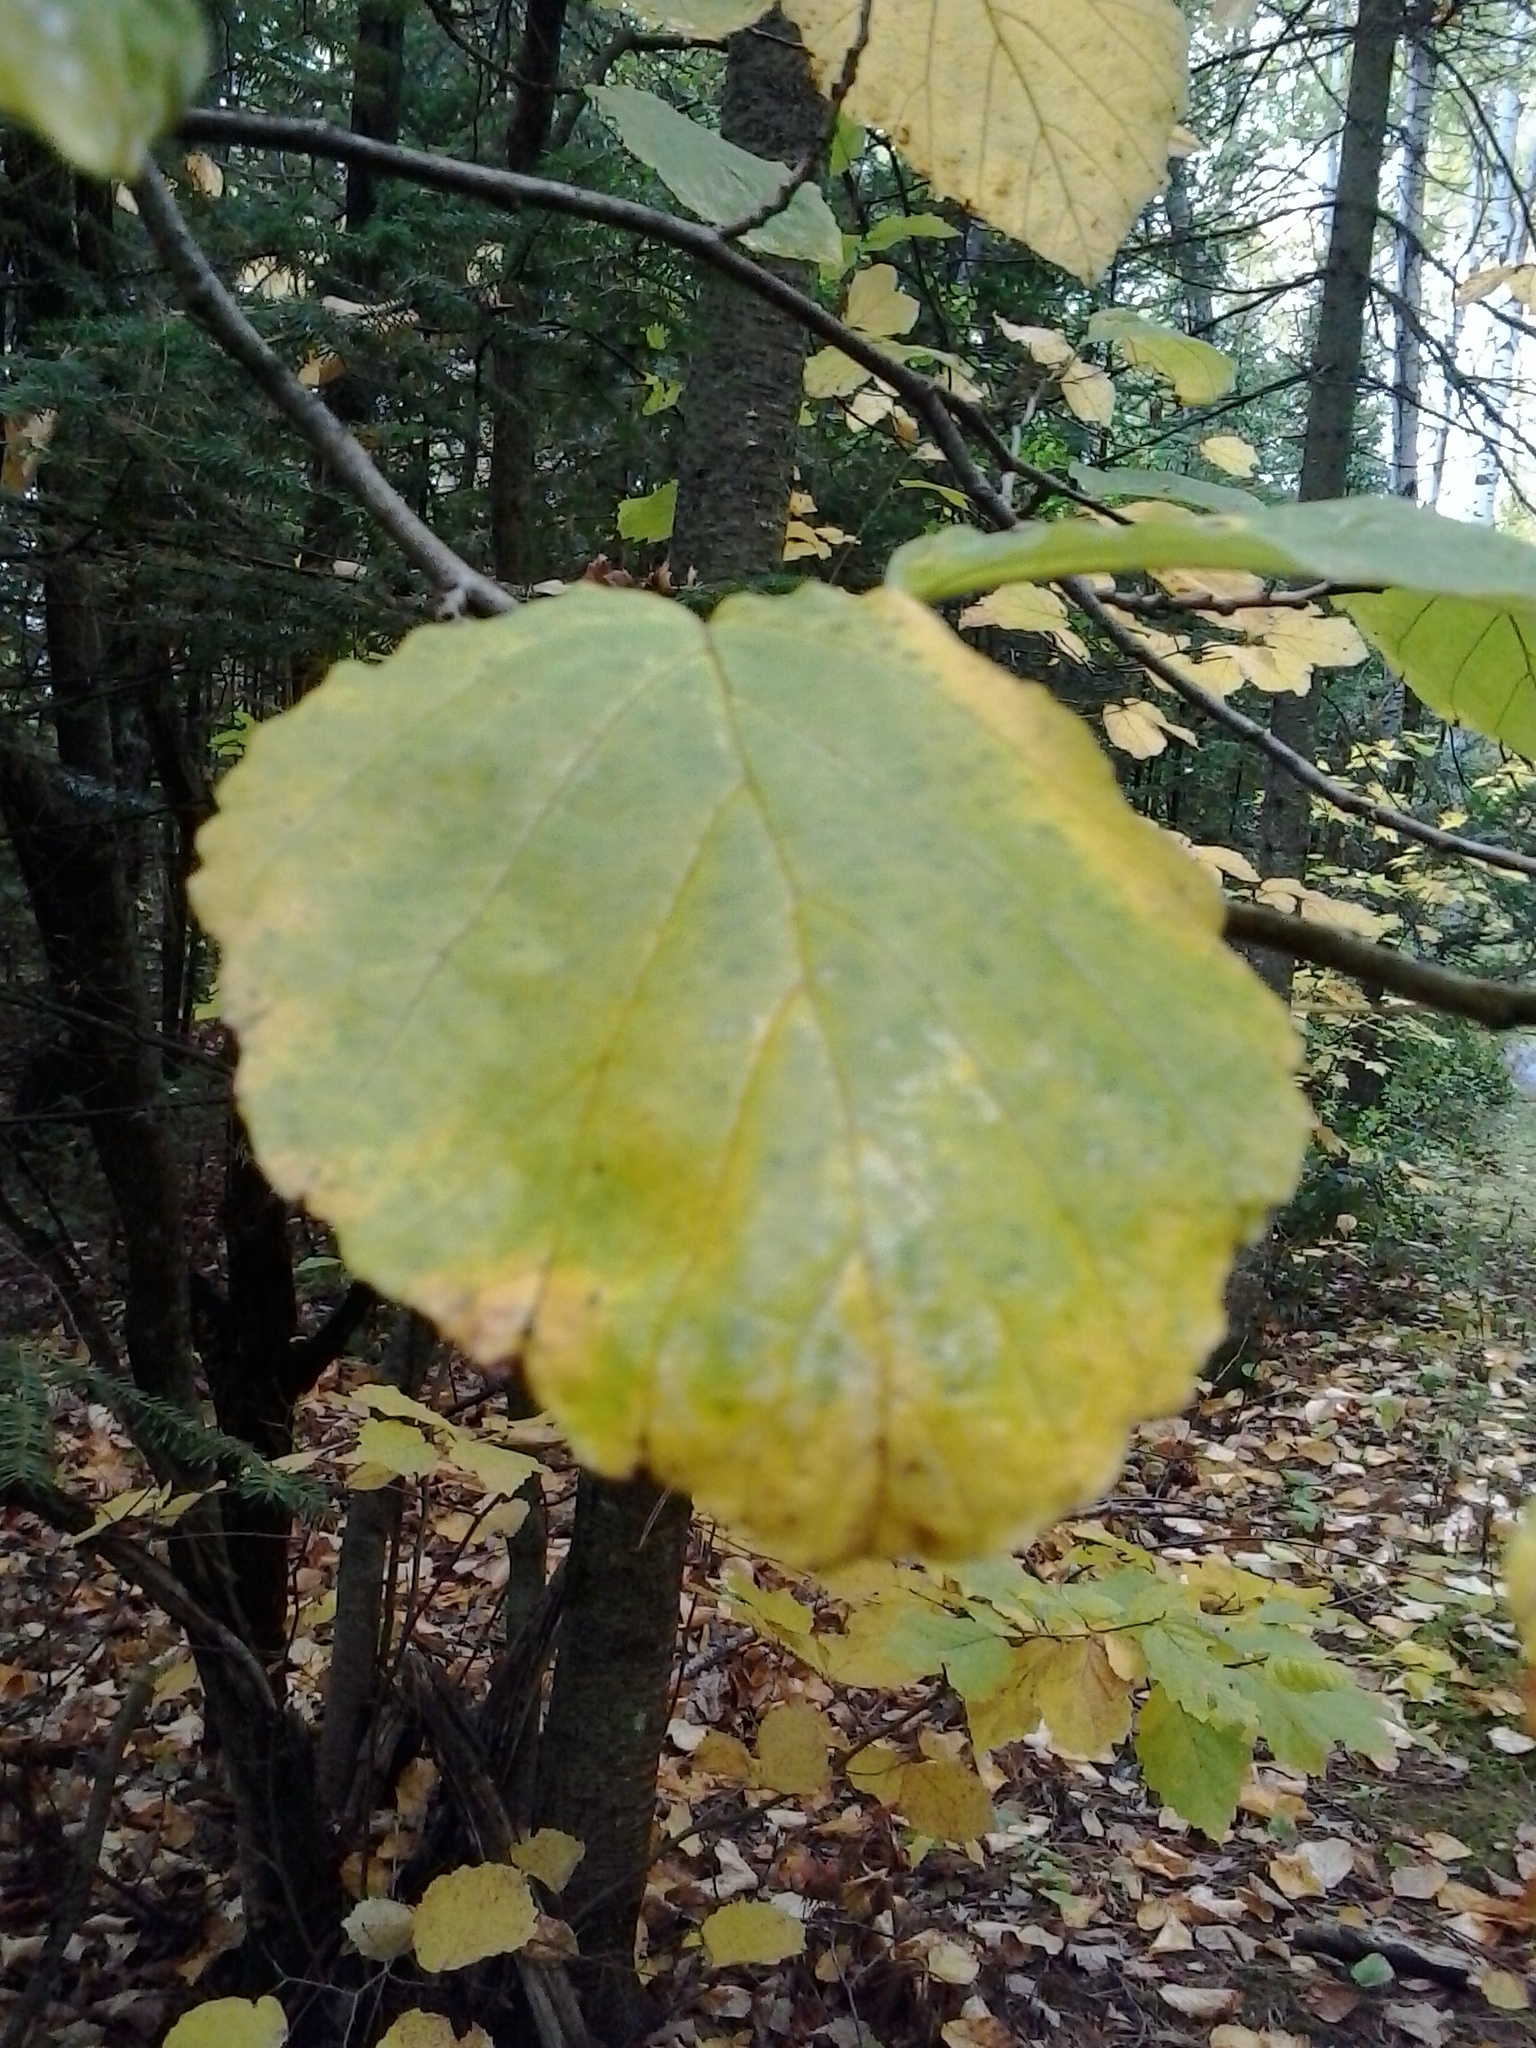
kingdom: Plantae
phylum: Tracheophyta
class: Magnoliopsida
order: Saxifragales
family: Hamamelidaceae
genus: Hamamelis
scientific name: Hamamelis virginiana
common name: Witch-hazel
